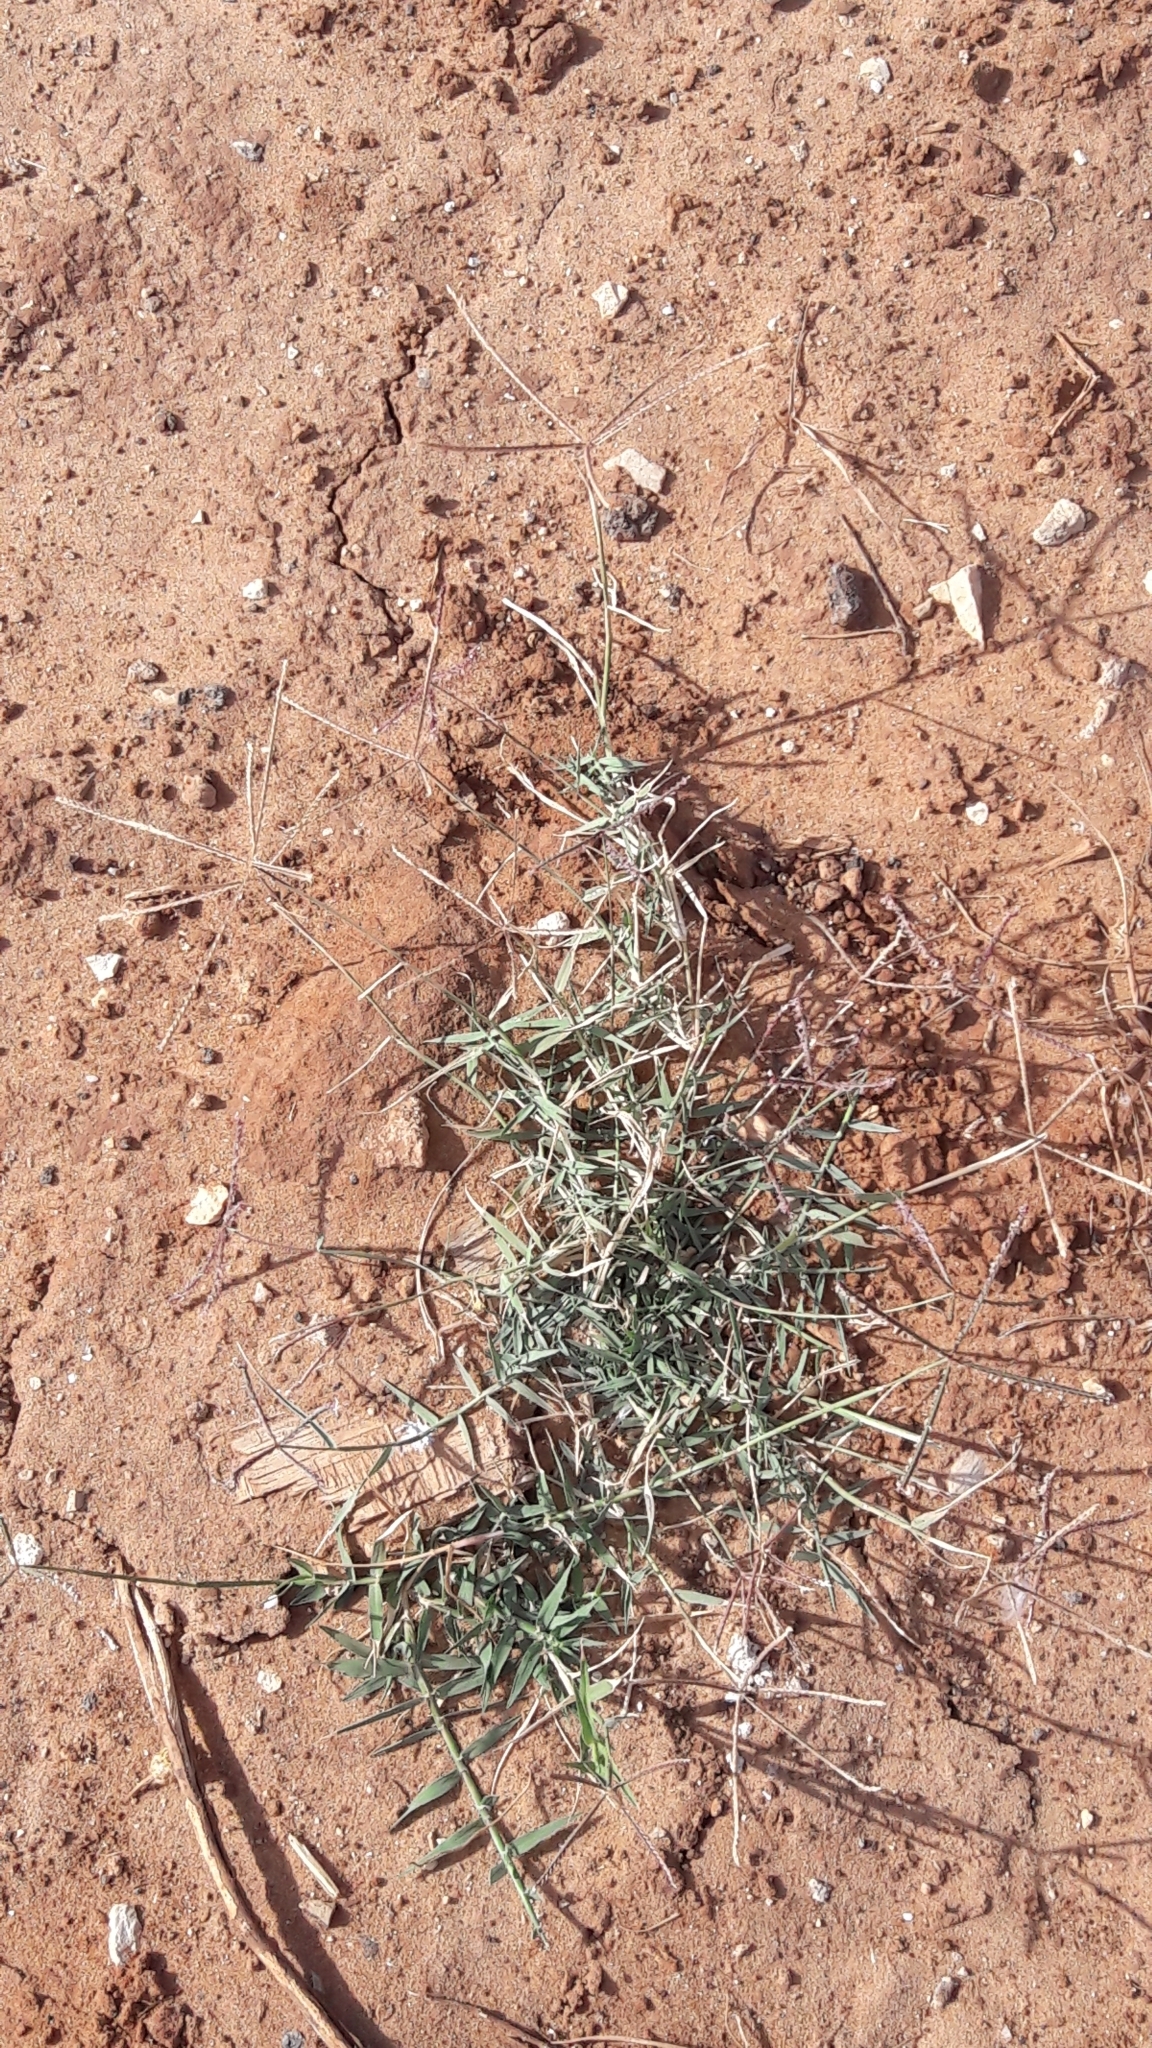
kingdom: Plantae
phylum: Tracheophyta
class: Liliopsida
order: Poales
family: Poaceae
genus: Cynodon
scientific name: Cynodon dactylon
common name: Bermuda grass
